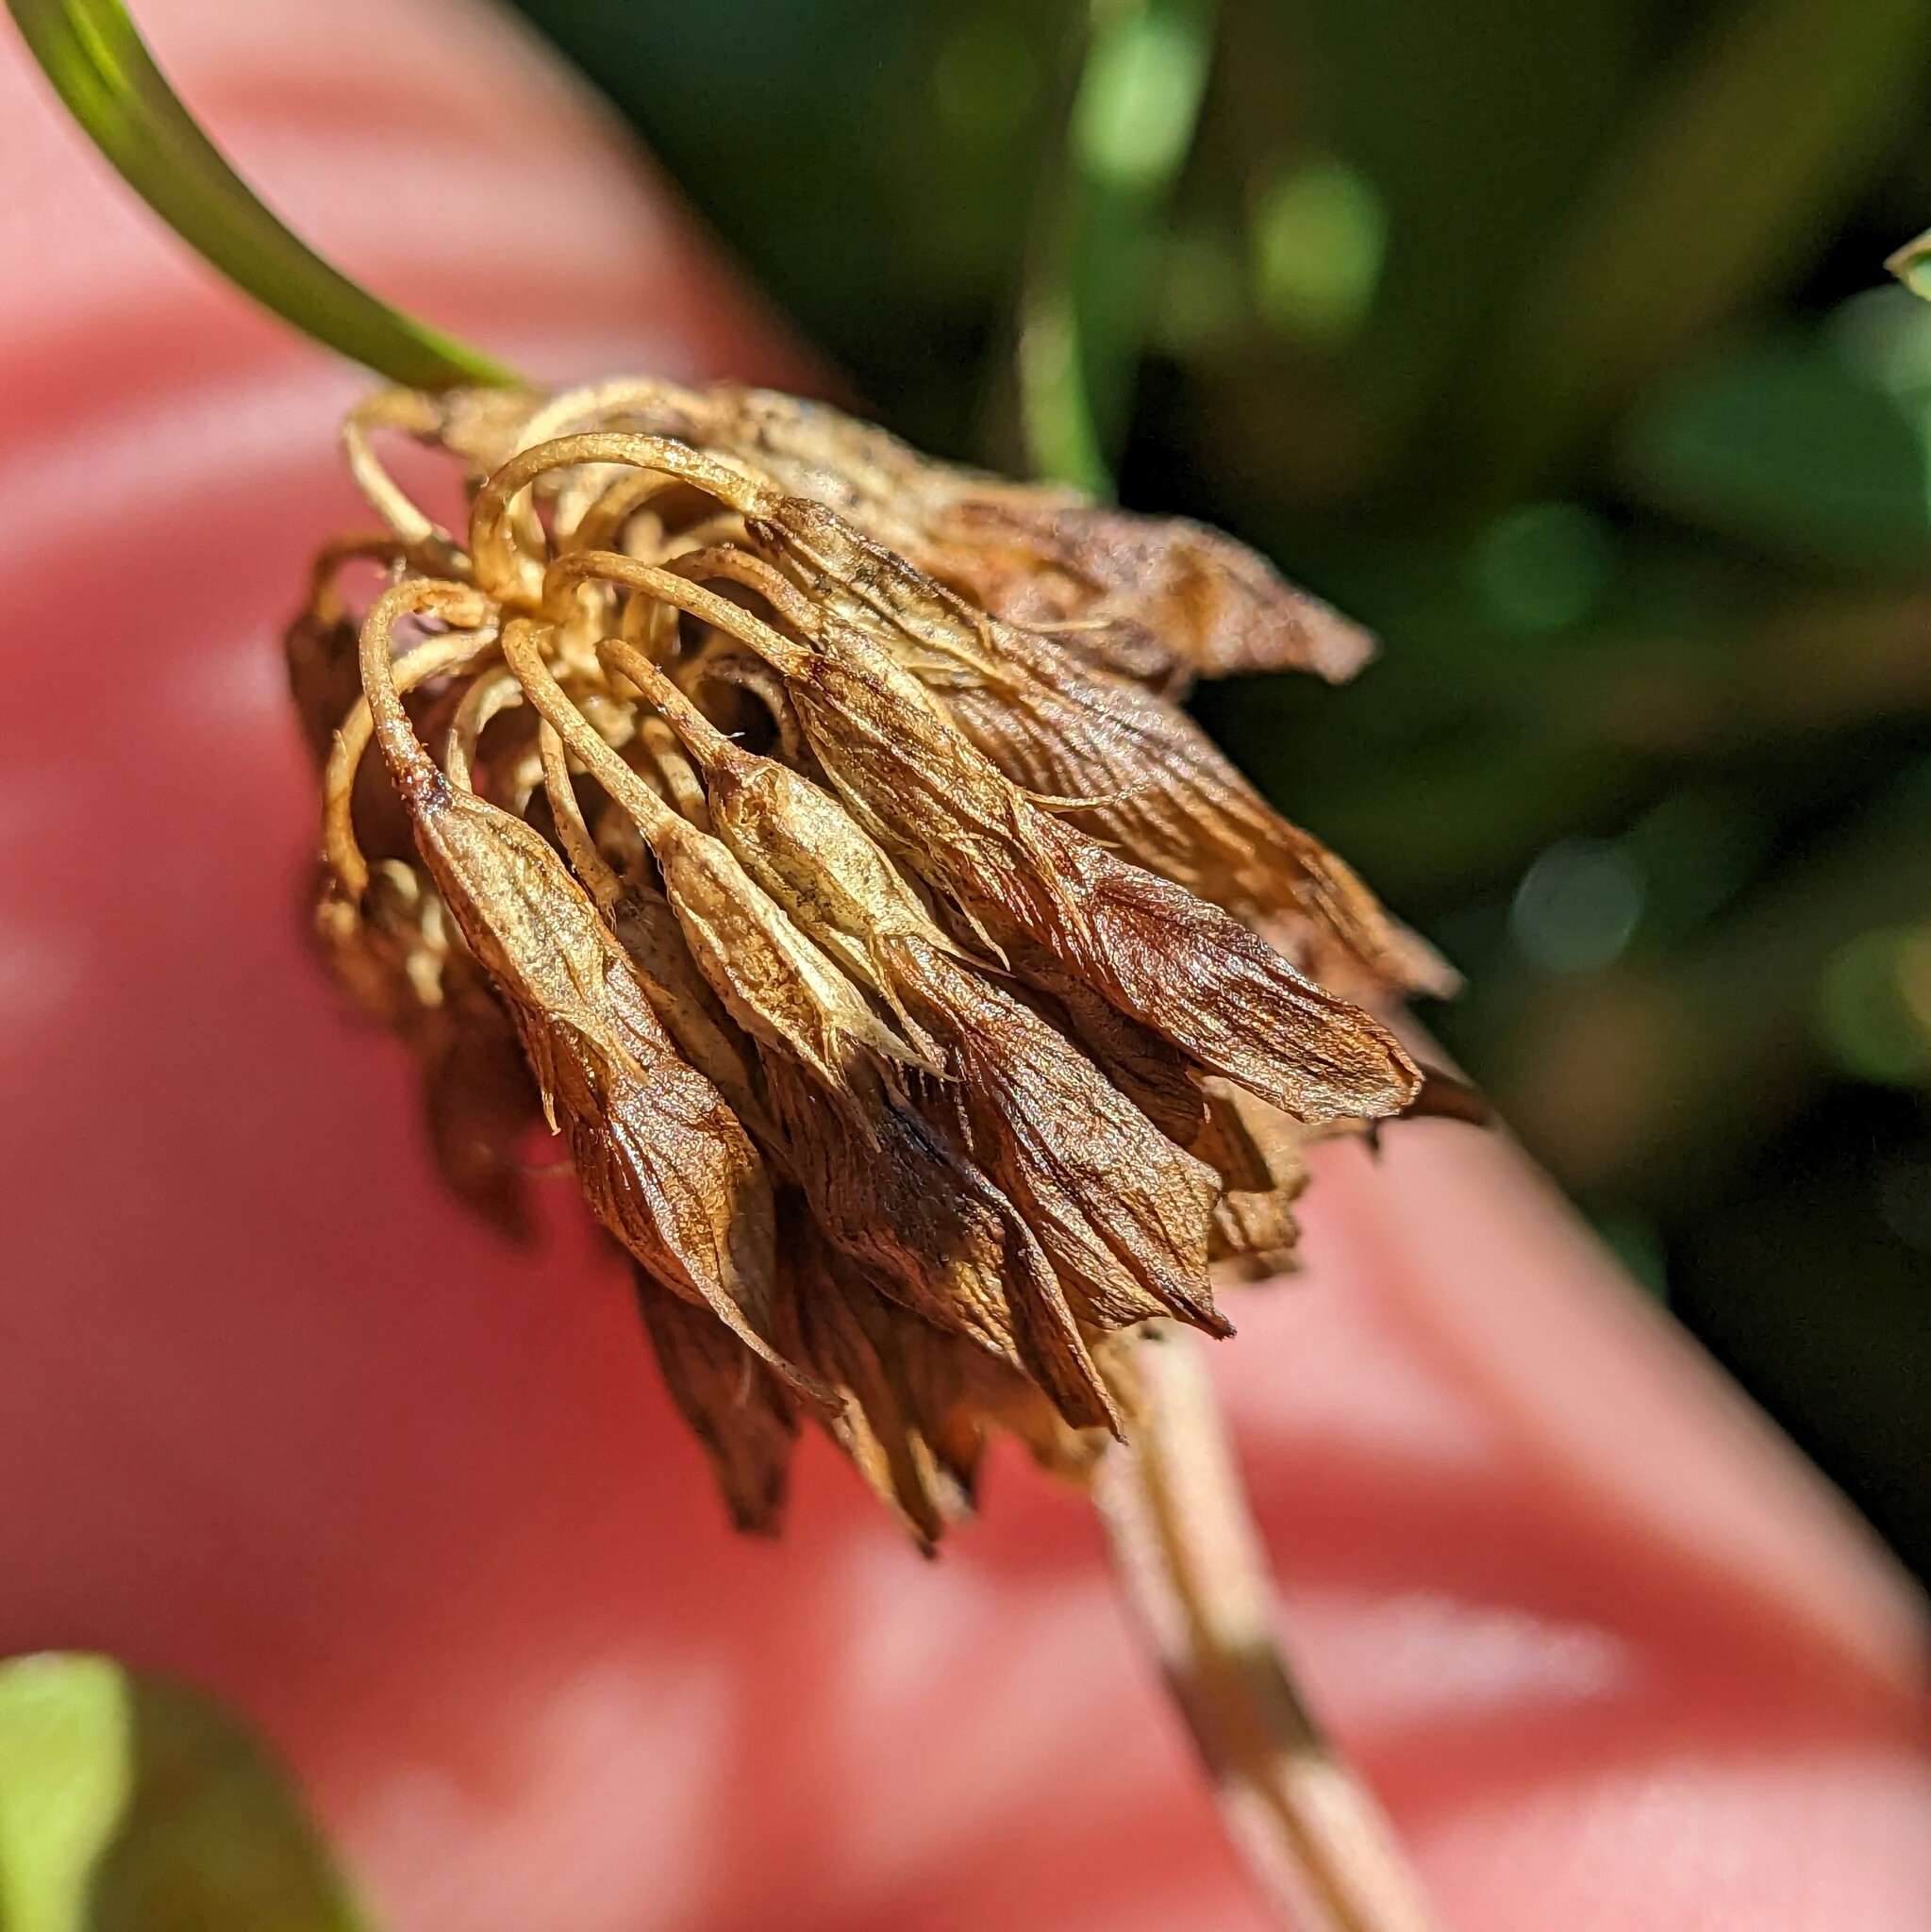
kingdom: Plantae
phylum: Tracheophyta
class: Magnoliopsida
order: Fabales
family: Fabaceae
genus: Trifolium
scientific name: Trifolium repens
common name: White clover
